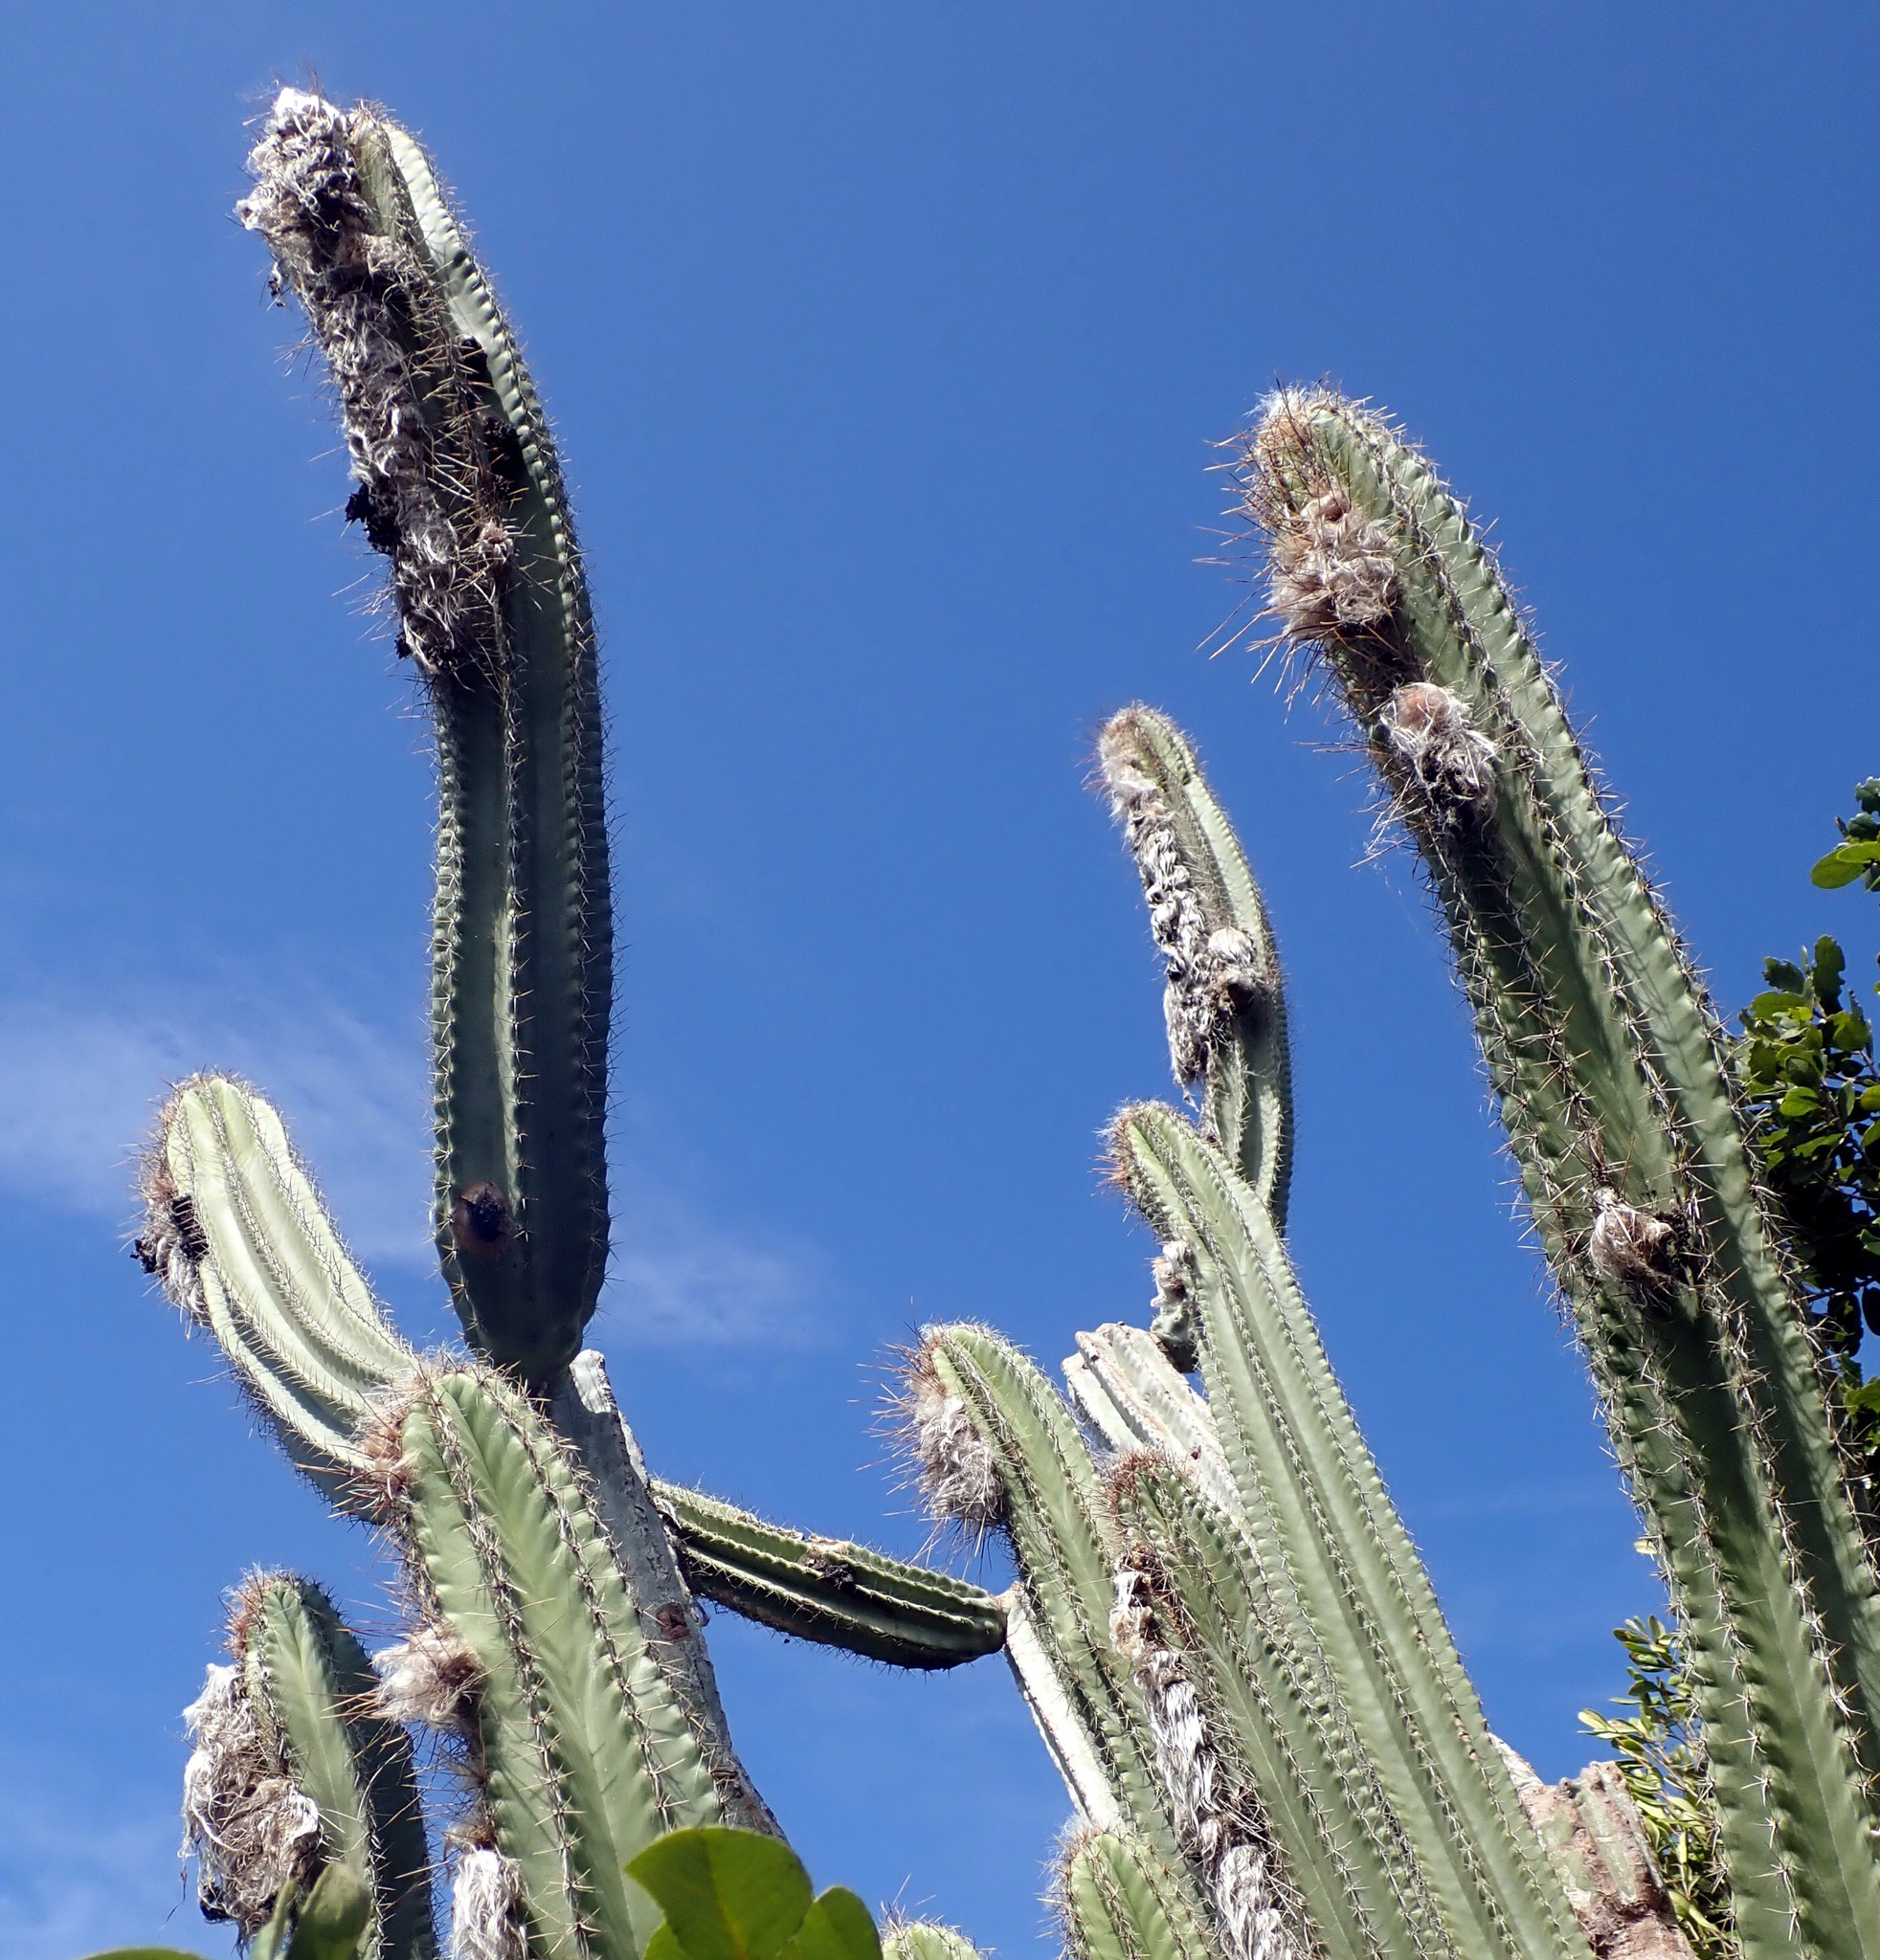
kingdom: Plantae
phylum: Tracheophyta
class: Magnoliopsida
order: Caryophyllales
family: Cactaceae
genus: Pilosocereus
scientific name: Pilosocereus millspaughii
